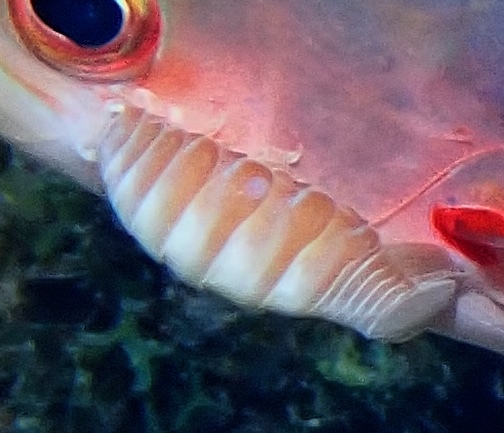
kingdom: Animalia
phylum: Arthropoda
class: Malacostraca
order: Isopoda
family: Cymothoidae
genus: Anilocra
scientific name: Anilocra haemuli
